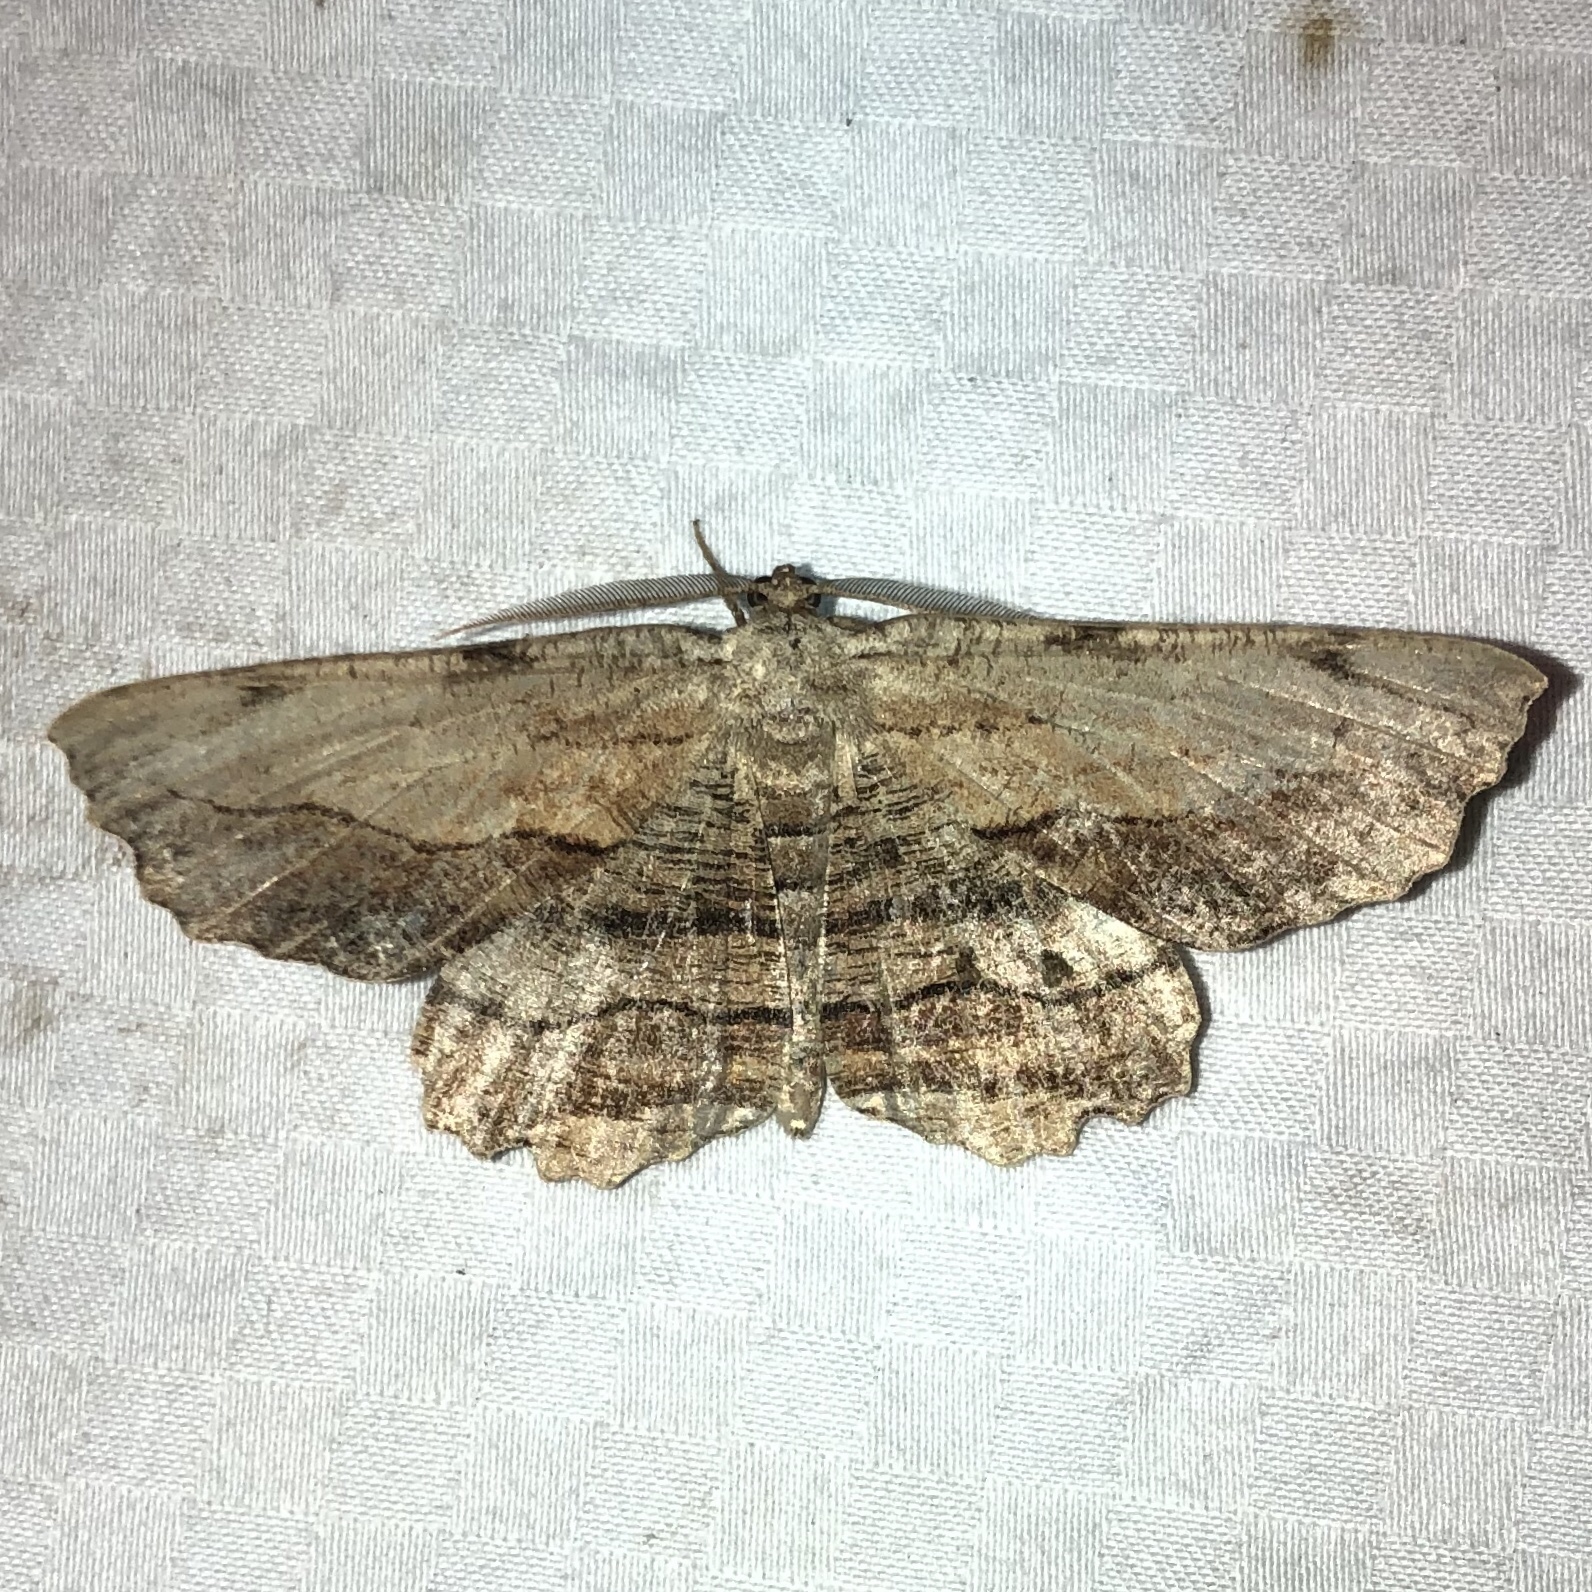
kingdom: Animalia
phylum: Arthropoda
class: Insecta
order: Lepidoptera
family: Geometridae
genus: Lytrosis
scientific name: Lytrosis unitaria
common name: Common lytrosis
